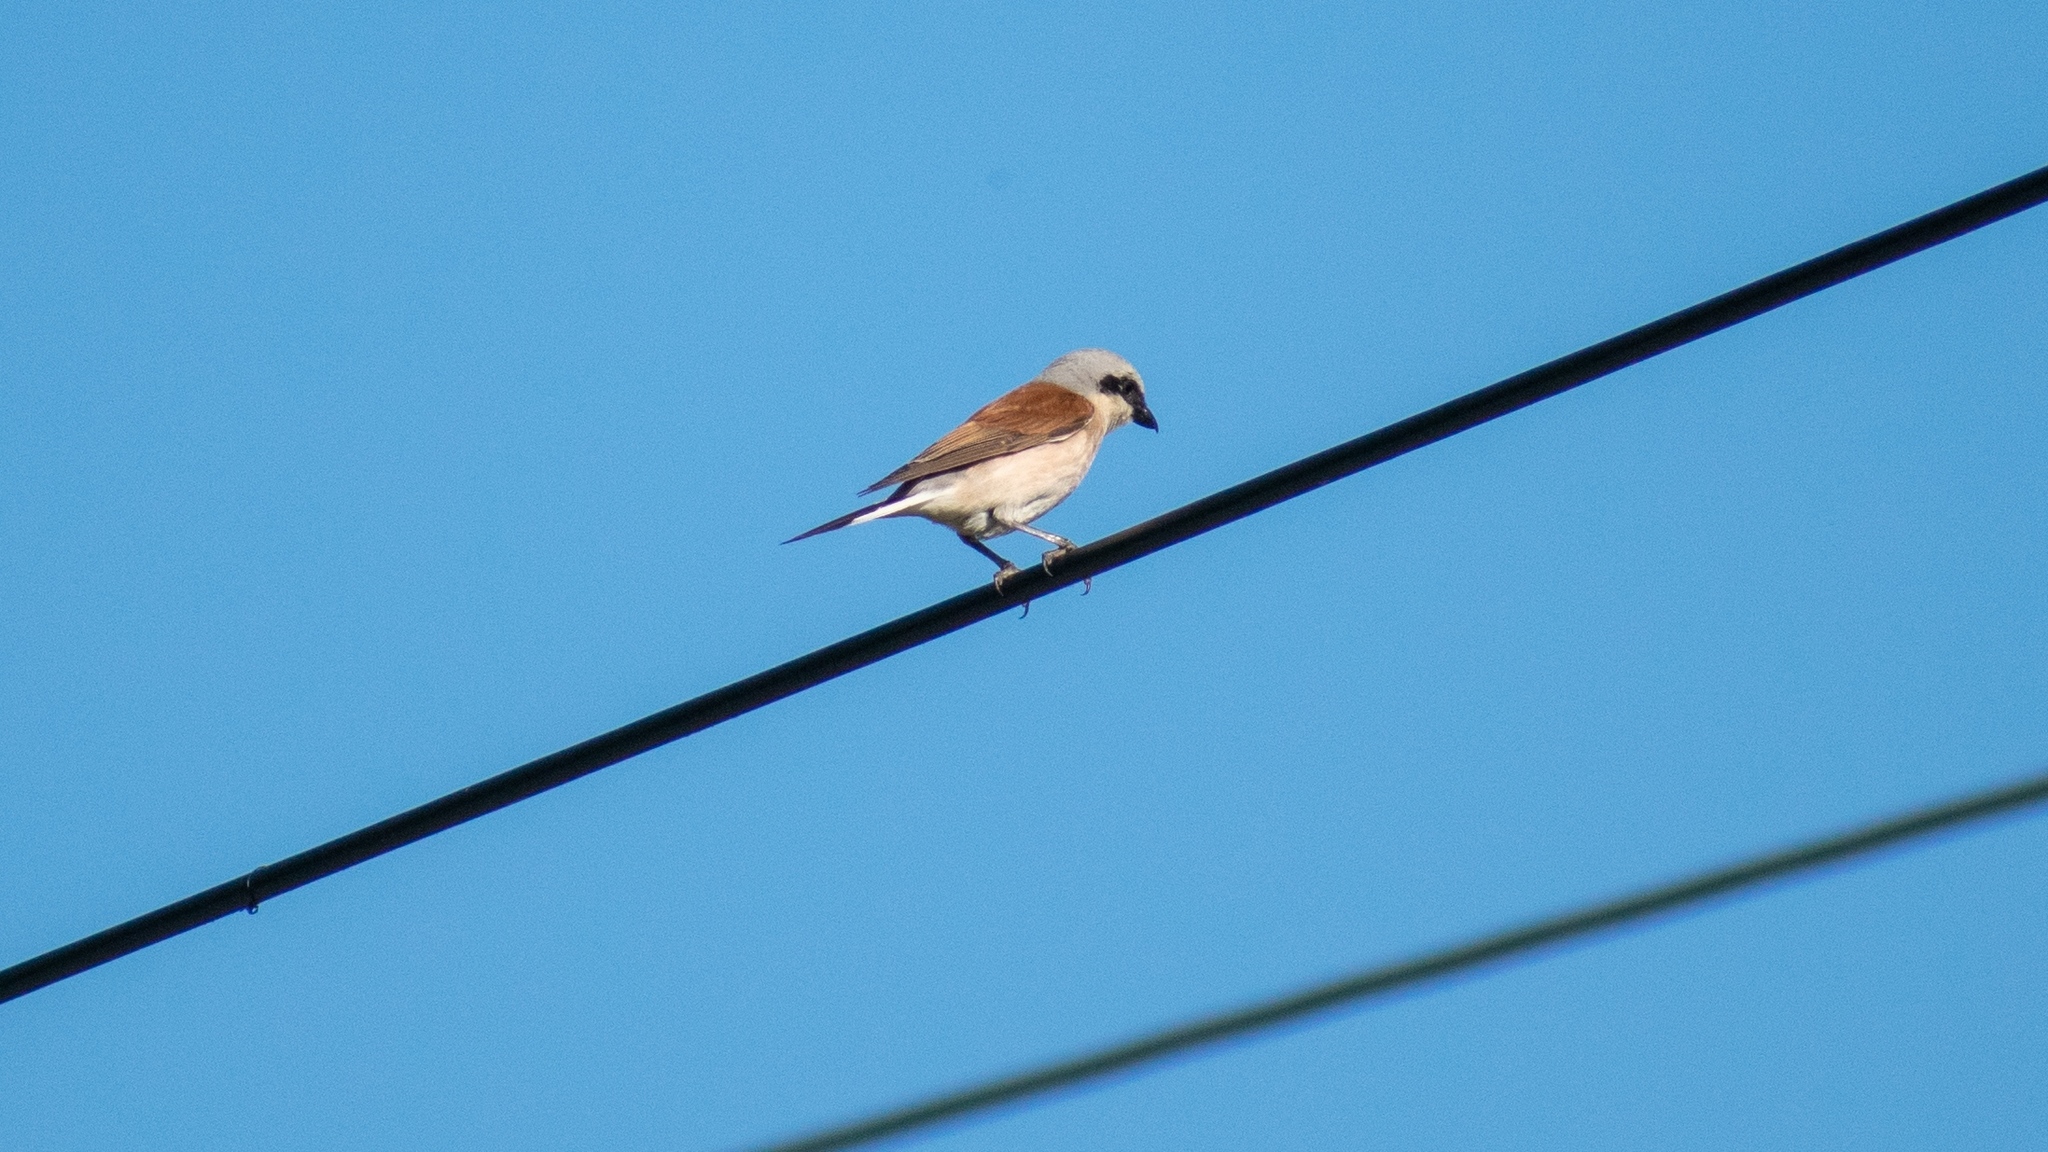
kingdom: Animalia
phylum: Chordata
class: Aves
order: Passeriformes
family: Laniidae
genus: Lanius
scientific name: Lanius collurio
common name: Red-backed shrike
